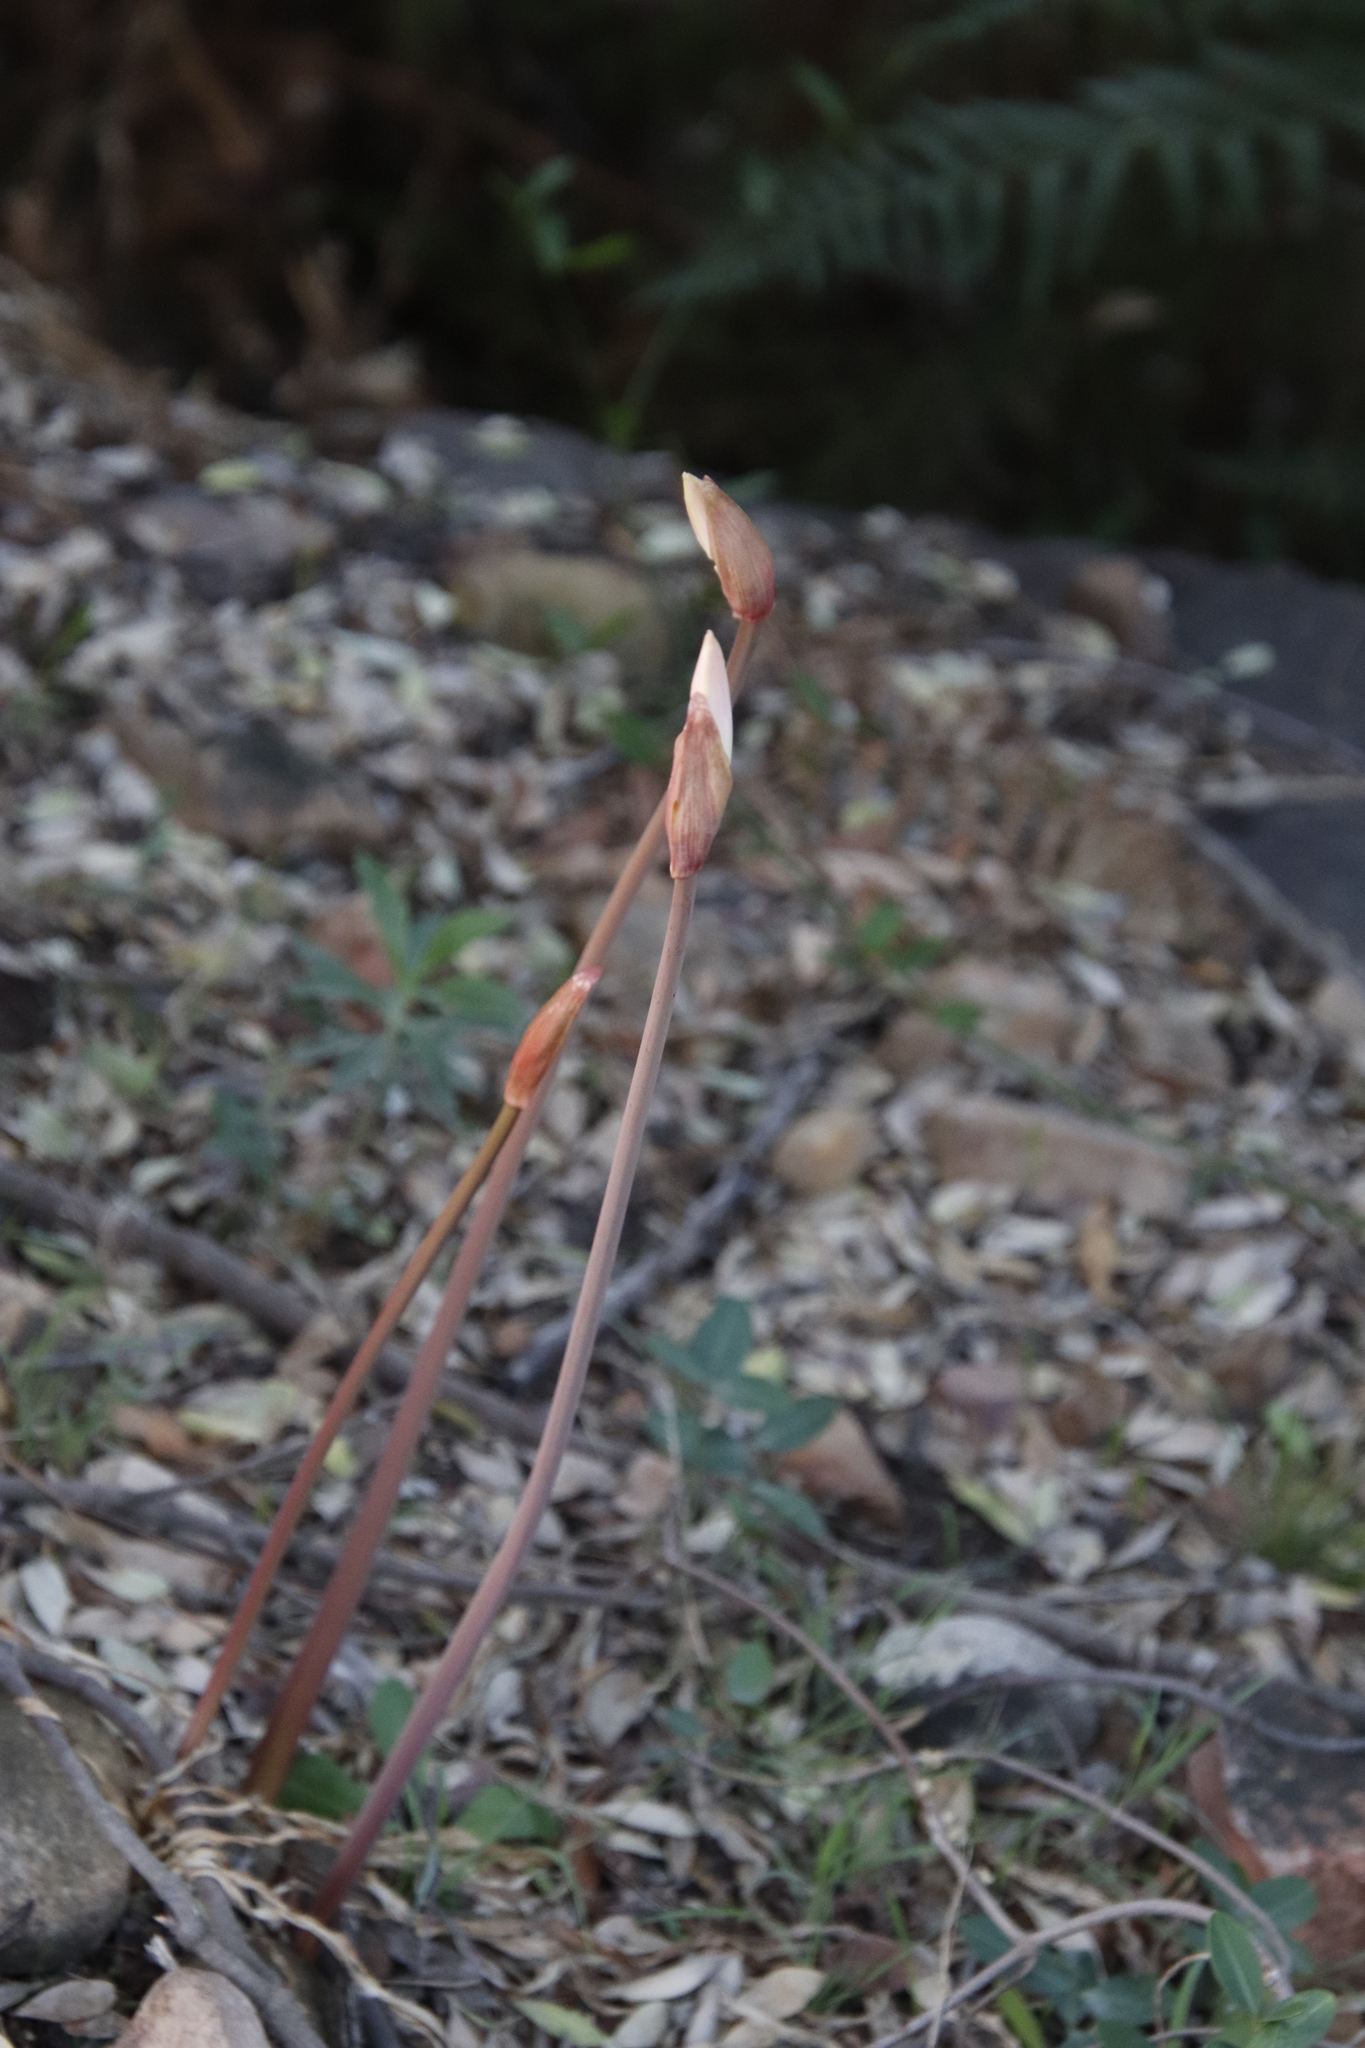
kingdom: Plantae
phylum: Tracheophyta
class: Liliopsida
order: Asparagales
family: Amaryllidaceae
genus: Amaryllis
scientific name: Amaryllis belladonna
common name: Jersey lily
